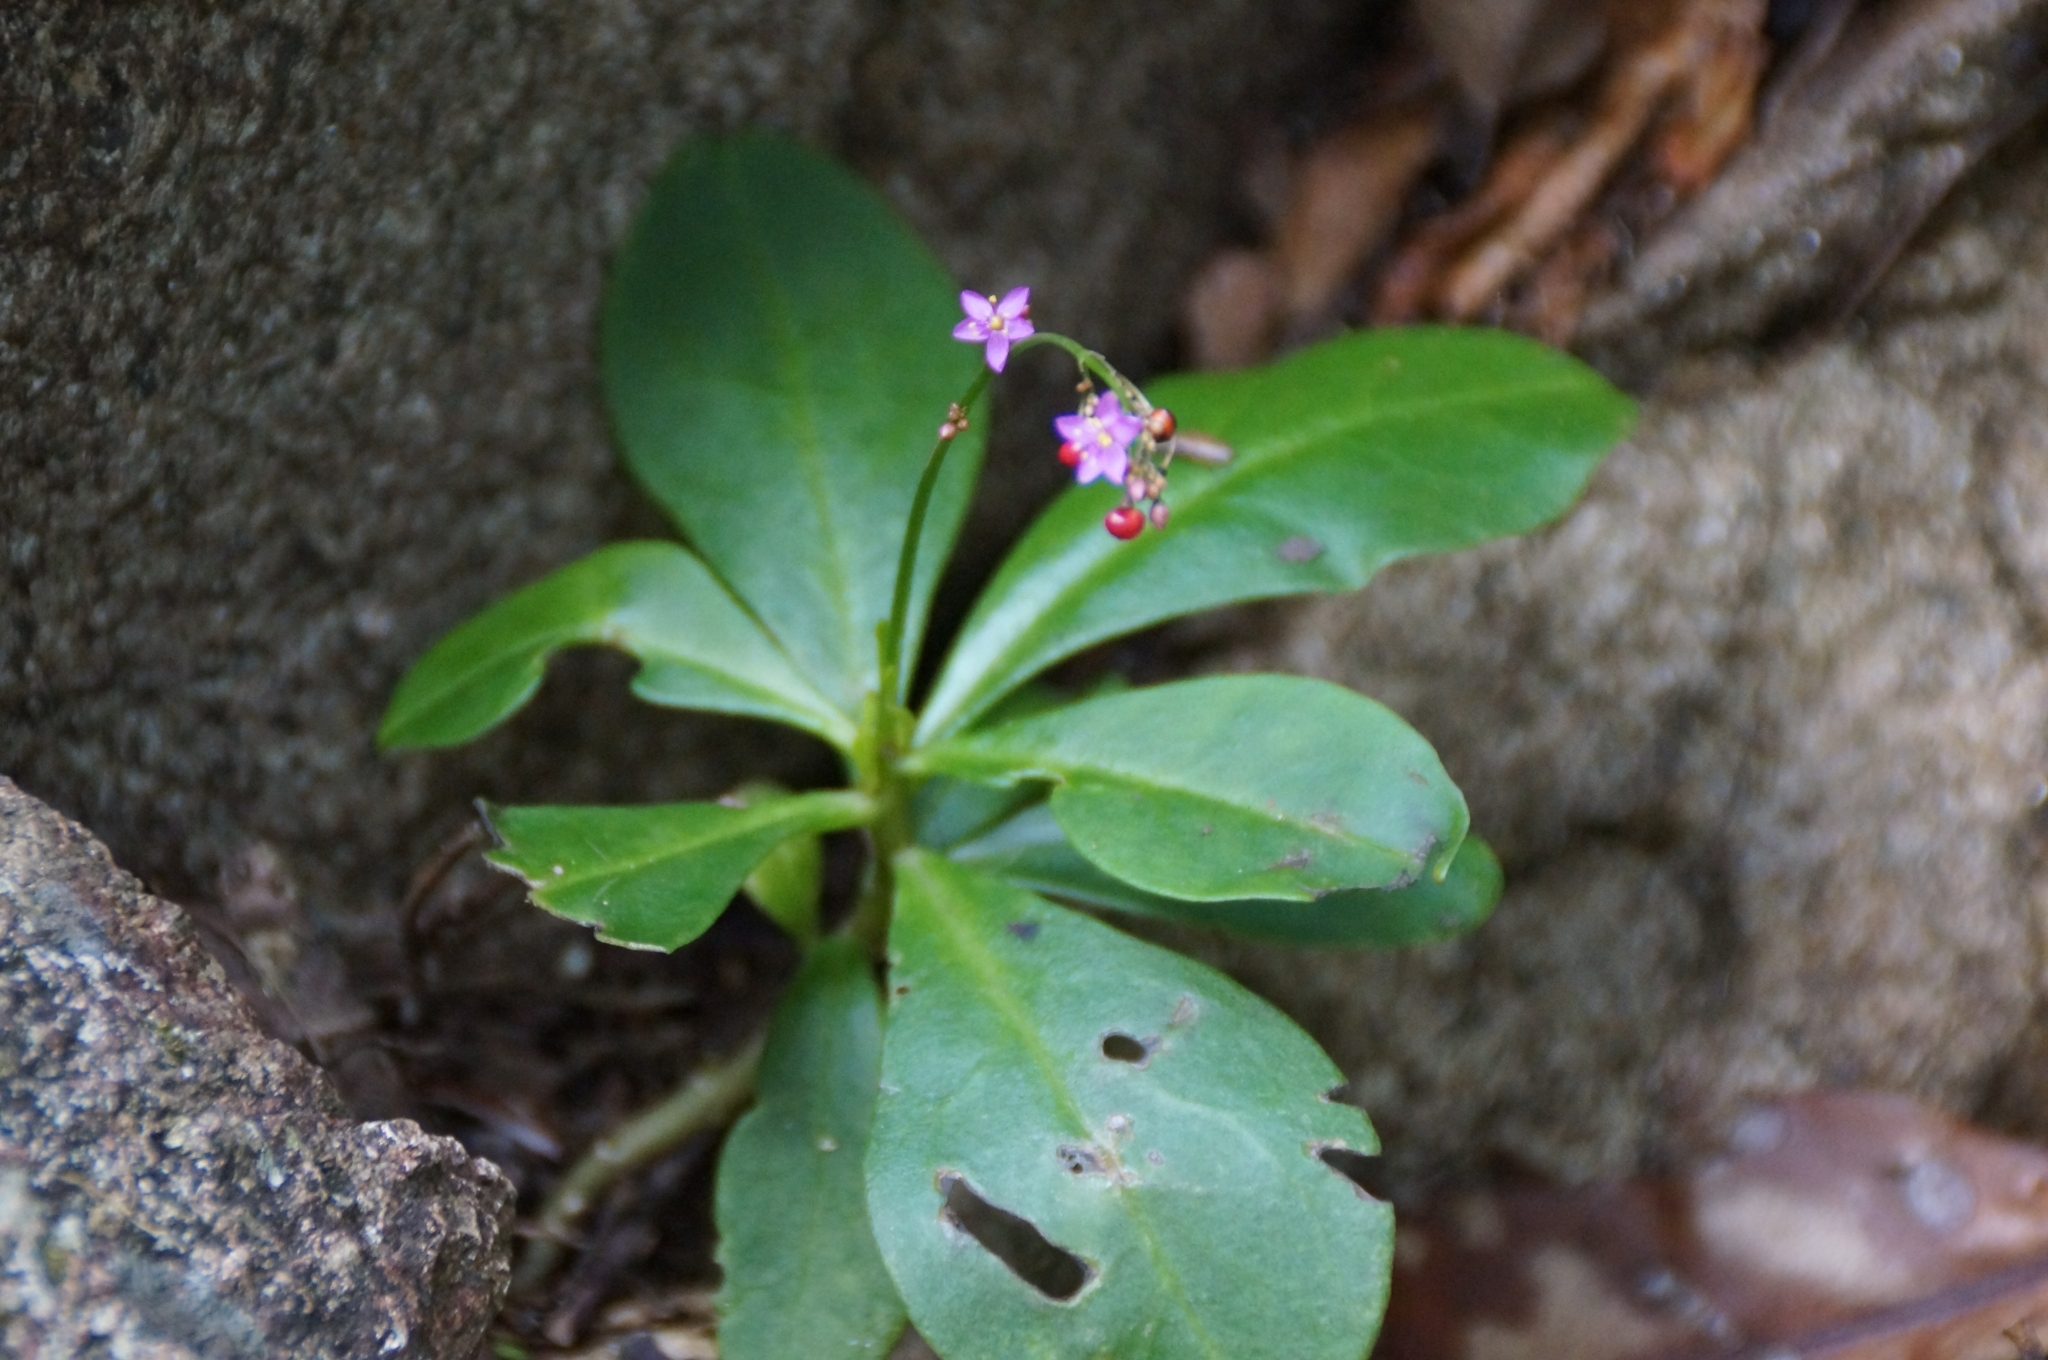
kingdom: Plantae
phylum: Tracheophyta
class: Magnoliopsida
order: Caryophyllales
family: Talinaceae
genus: Talinum
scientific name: Talinum paniculatum
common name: Jewels of opar
